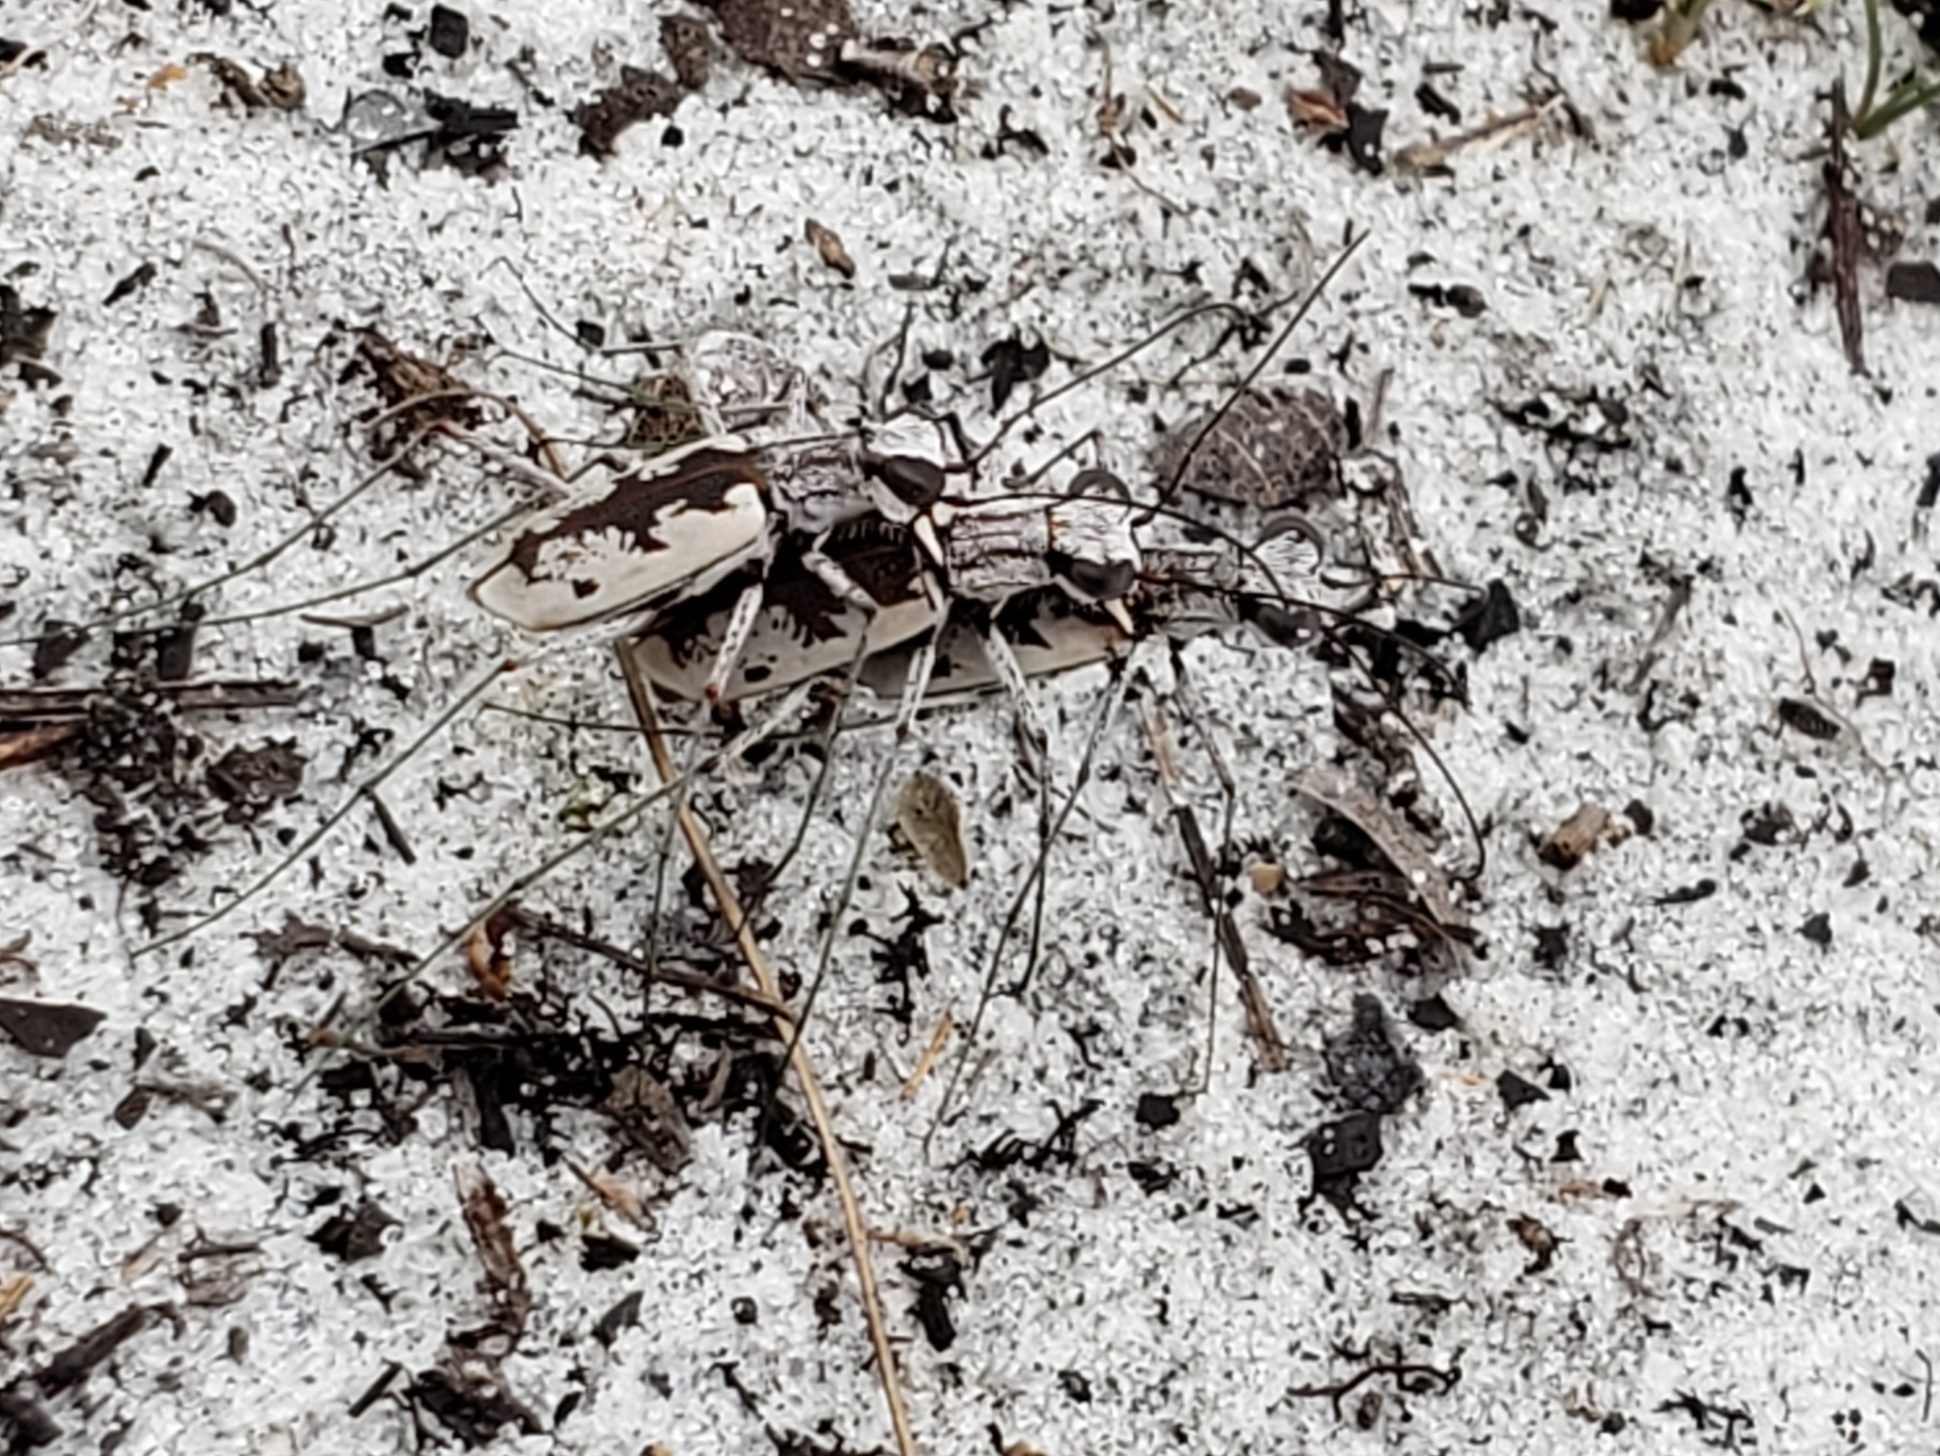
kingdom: Animalia
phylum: Arthropoda
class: Insecta
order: Coleoptera
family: Carabidae
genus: Ellipsoptera
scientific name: Ellipsoptera hirtilabris
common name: Moustached tiger beetle
